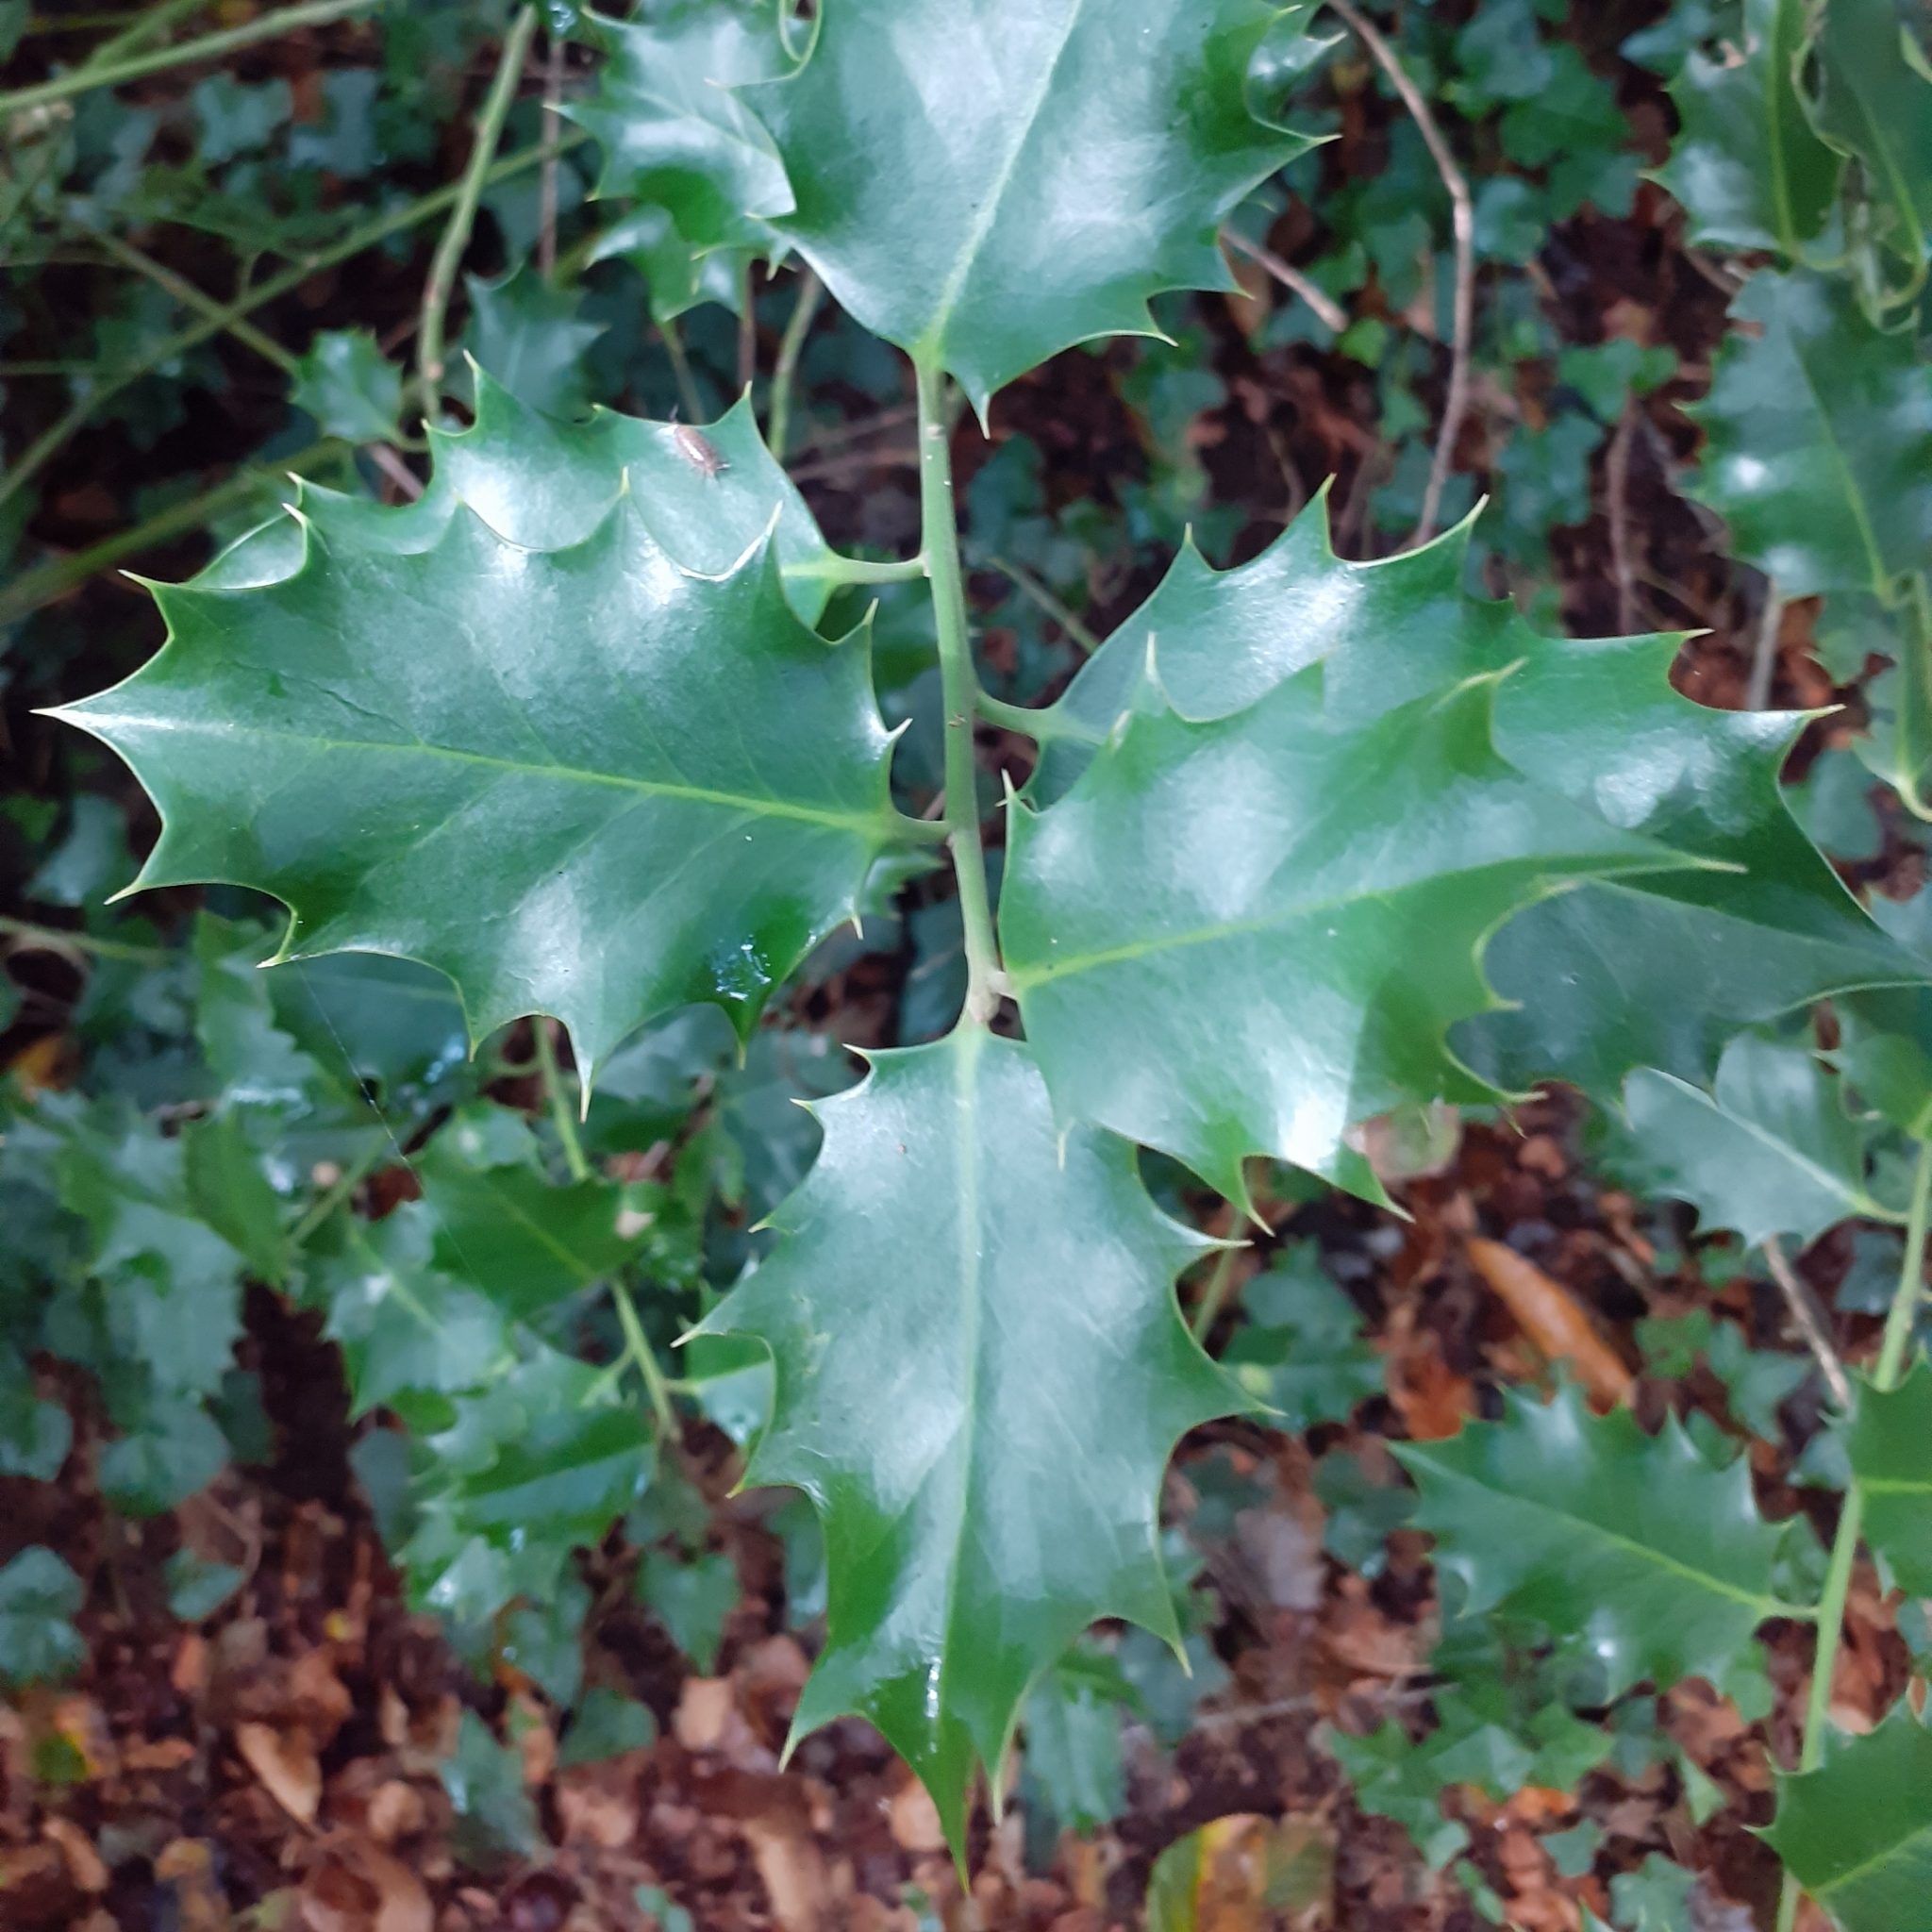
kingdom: Plantae
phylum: Tracheophyta
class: Magnoliopsida
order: Aquifoliales
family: Aquifoliaceae
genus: Ilex
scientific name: Ilex aquifolium
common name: English holly
